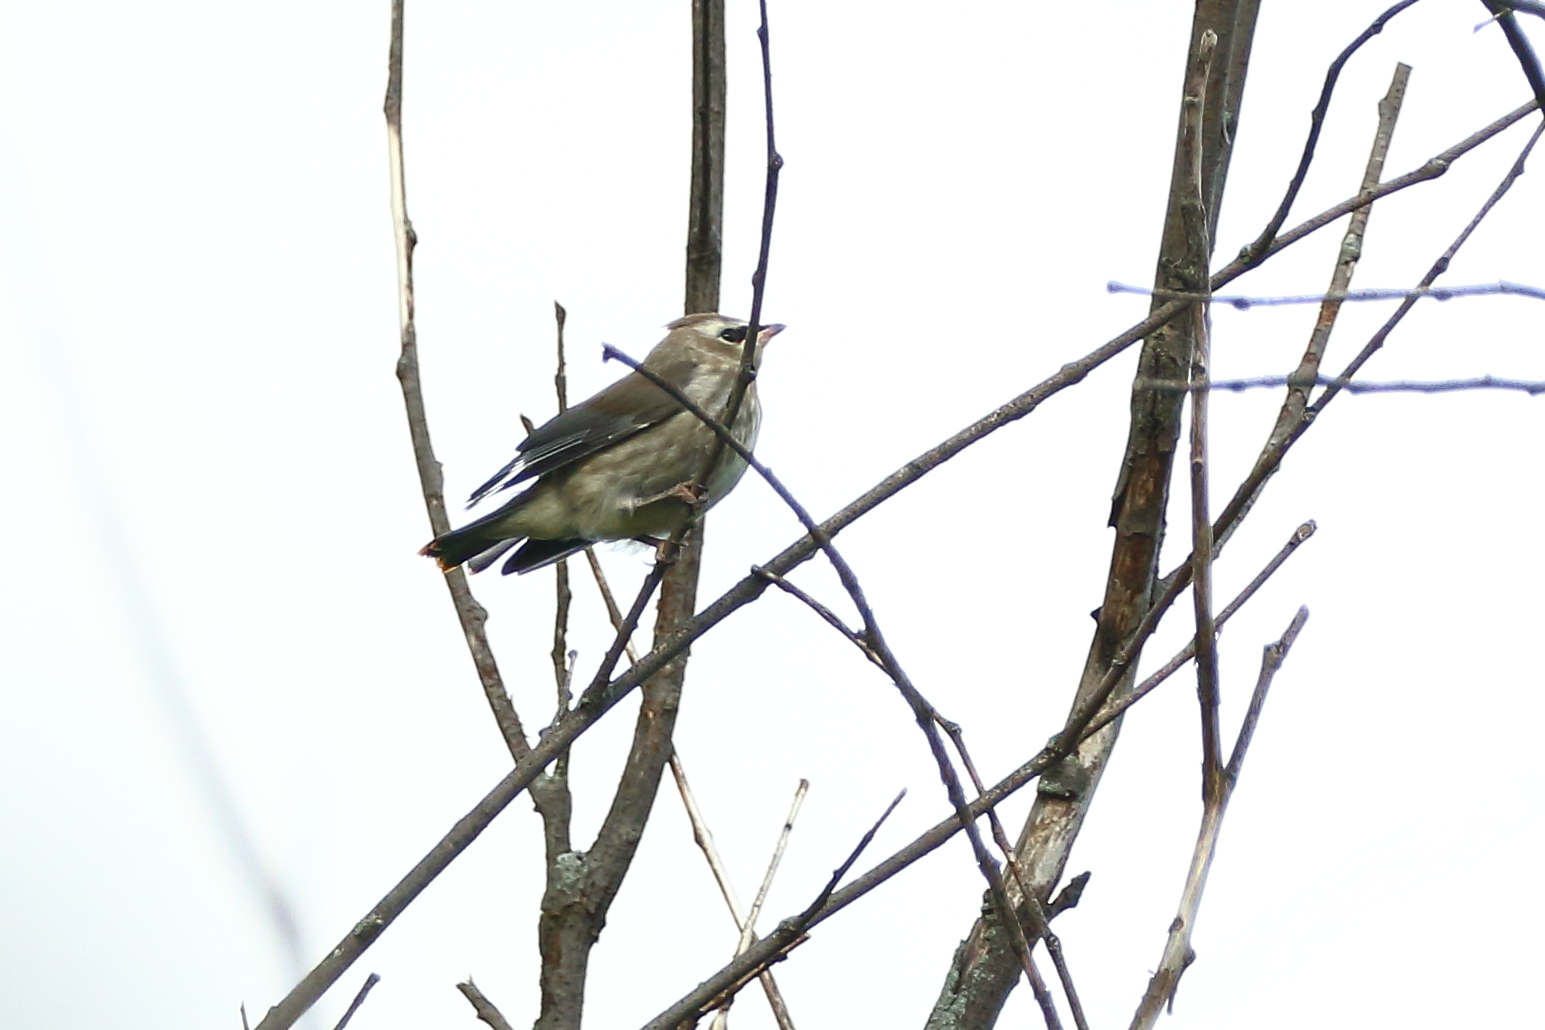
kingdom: Animalia
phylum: Chordata
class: Aves
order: Passeriformes
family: Bombycillidae
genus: Bombycilla
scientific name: Bombycilla cedrorum
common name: Cedar waxwing
